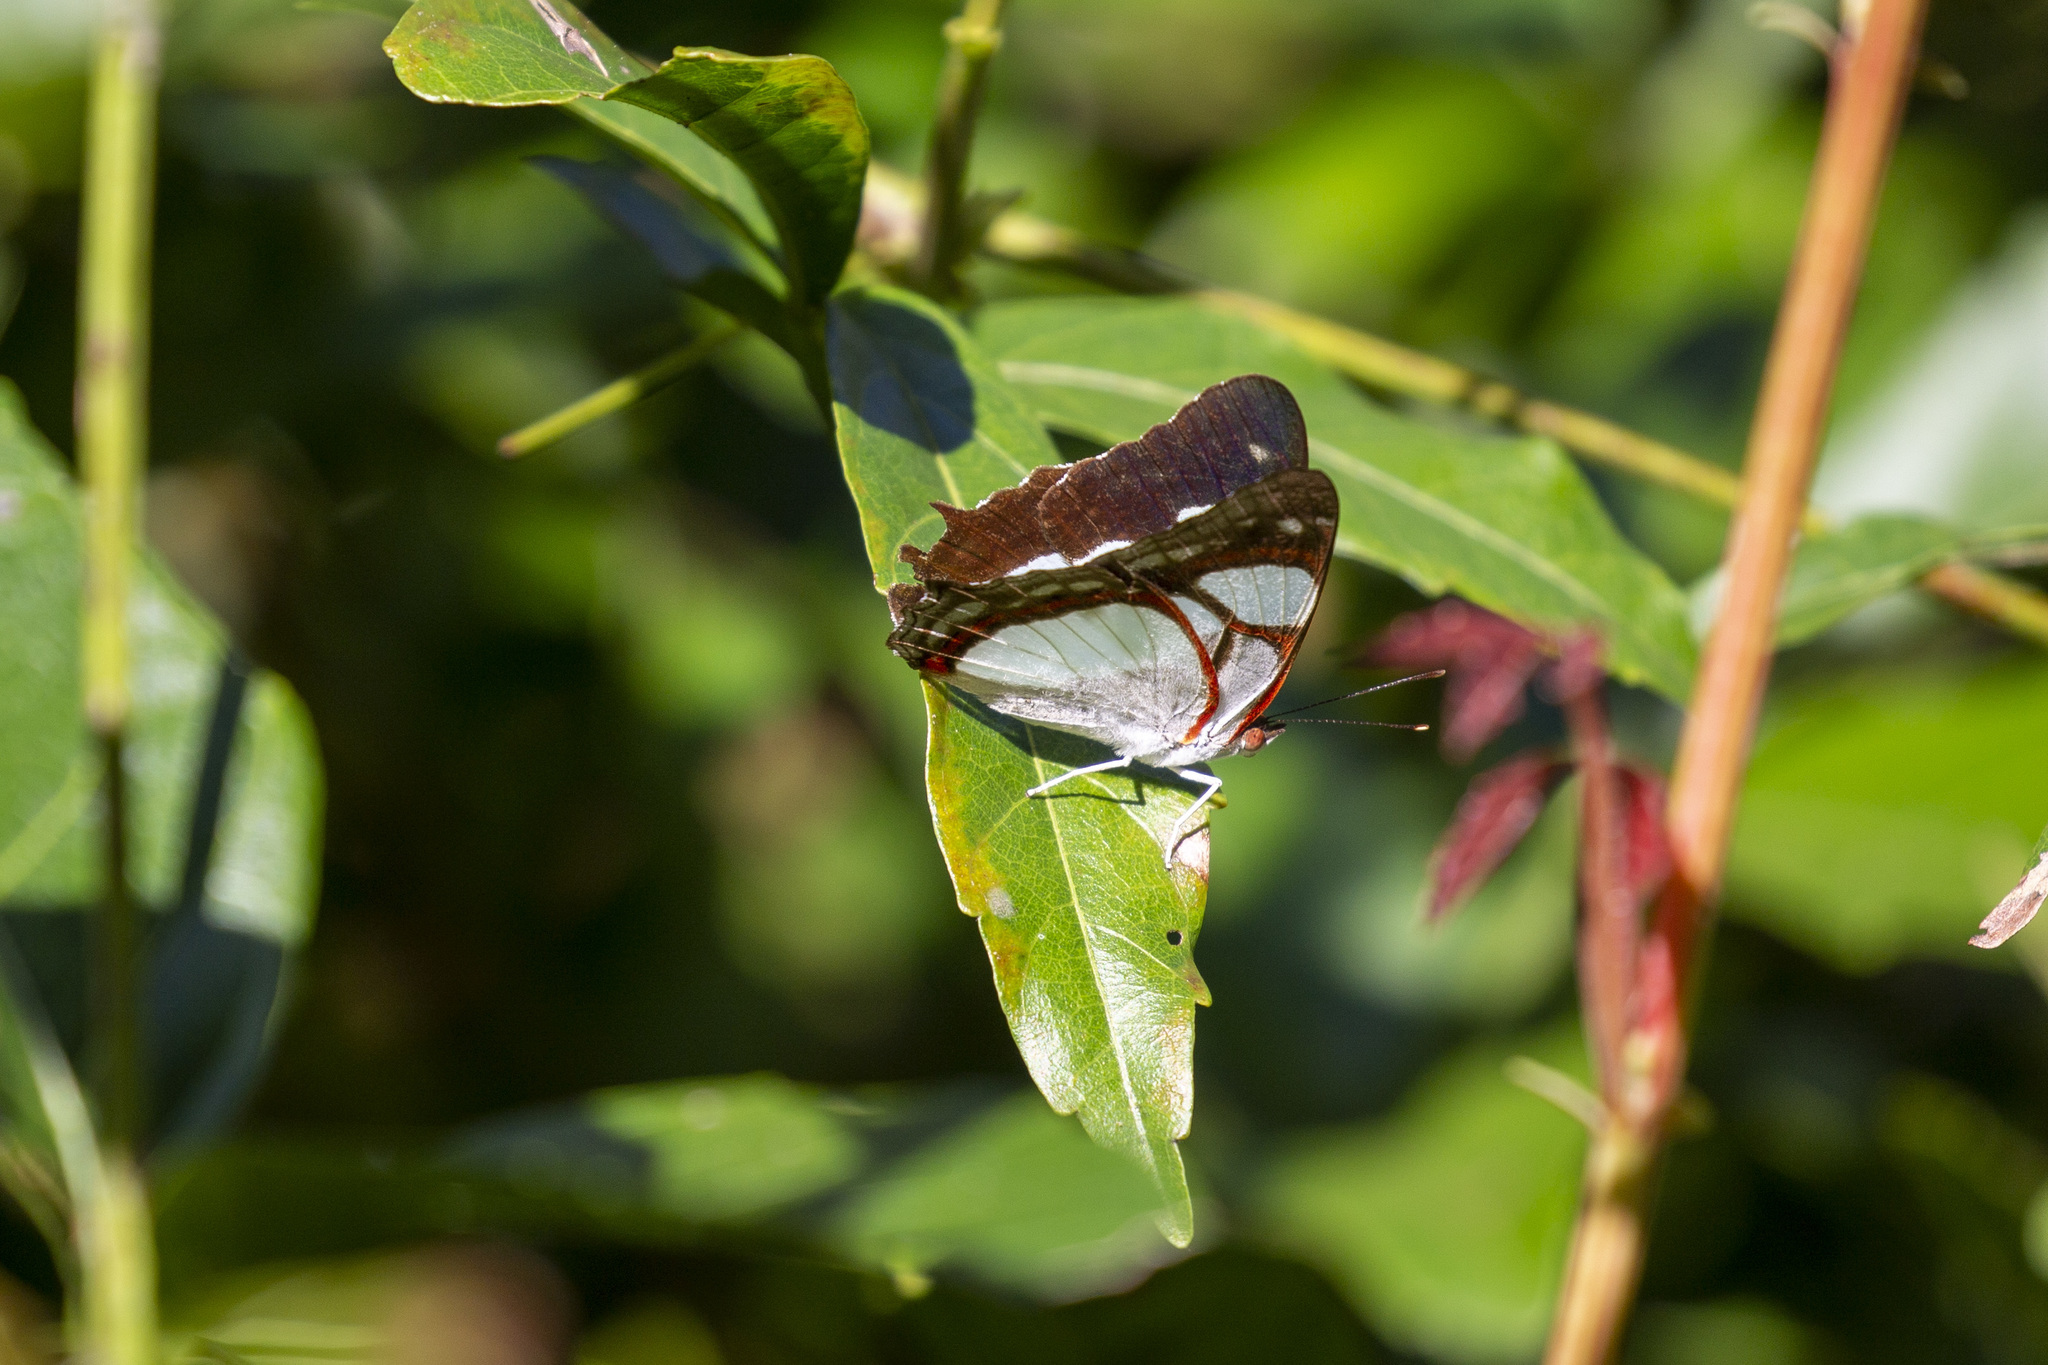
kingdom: Animalia
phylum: Arthropoda
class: Insecta
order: Lepidoptera
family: Nymphalidae
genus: Pyrrhogyra
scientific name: Pyrrhogyra neaerea
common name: Leading red-ring
